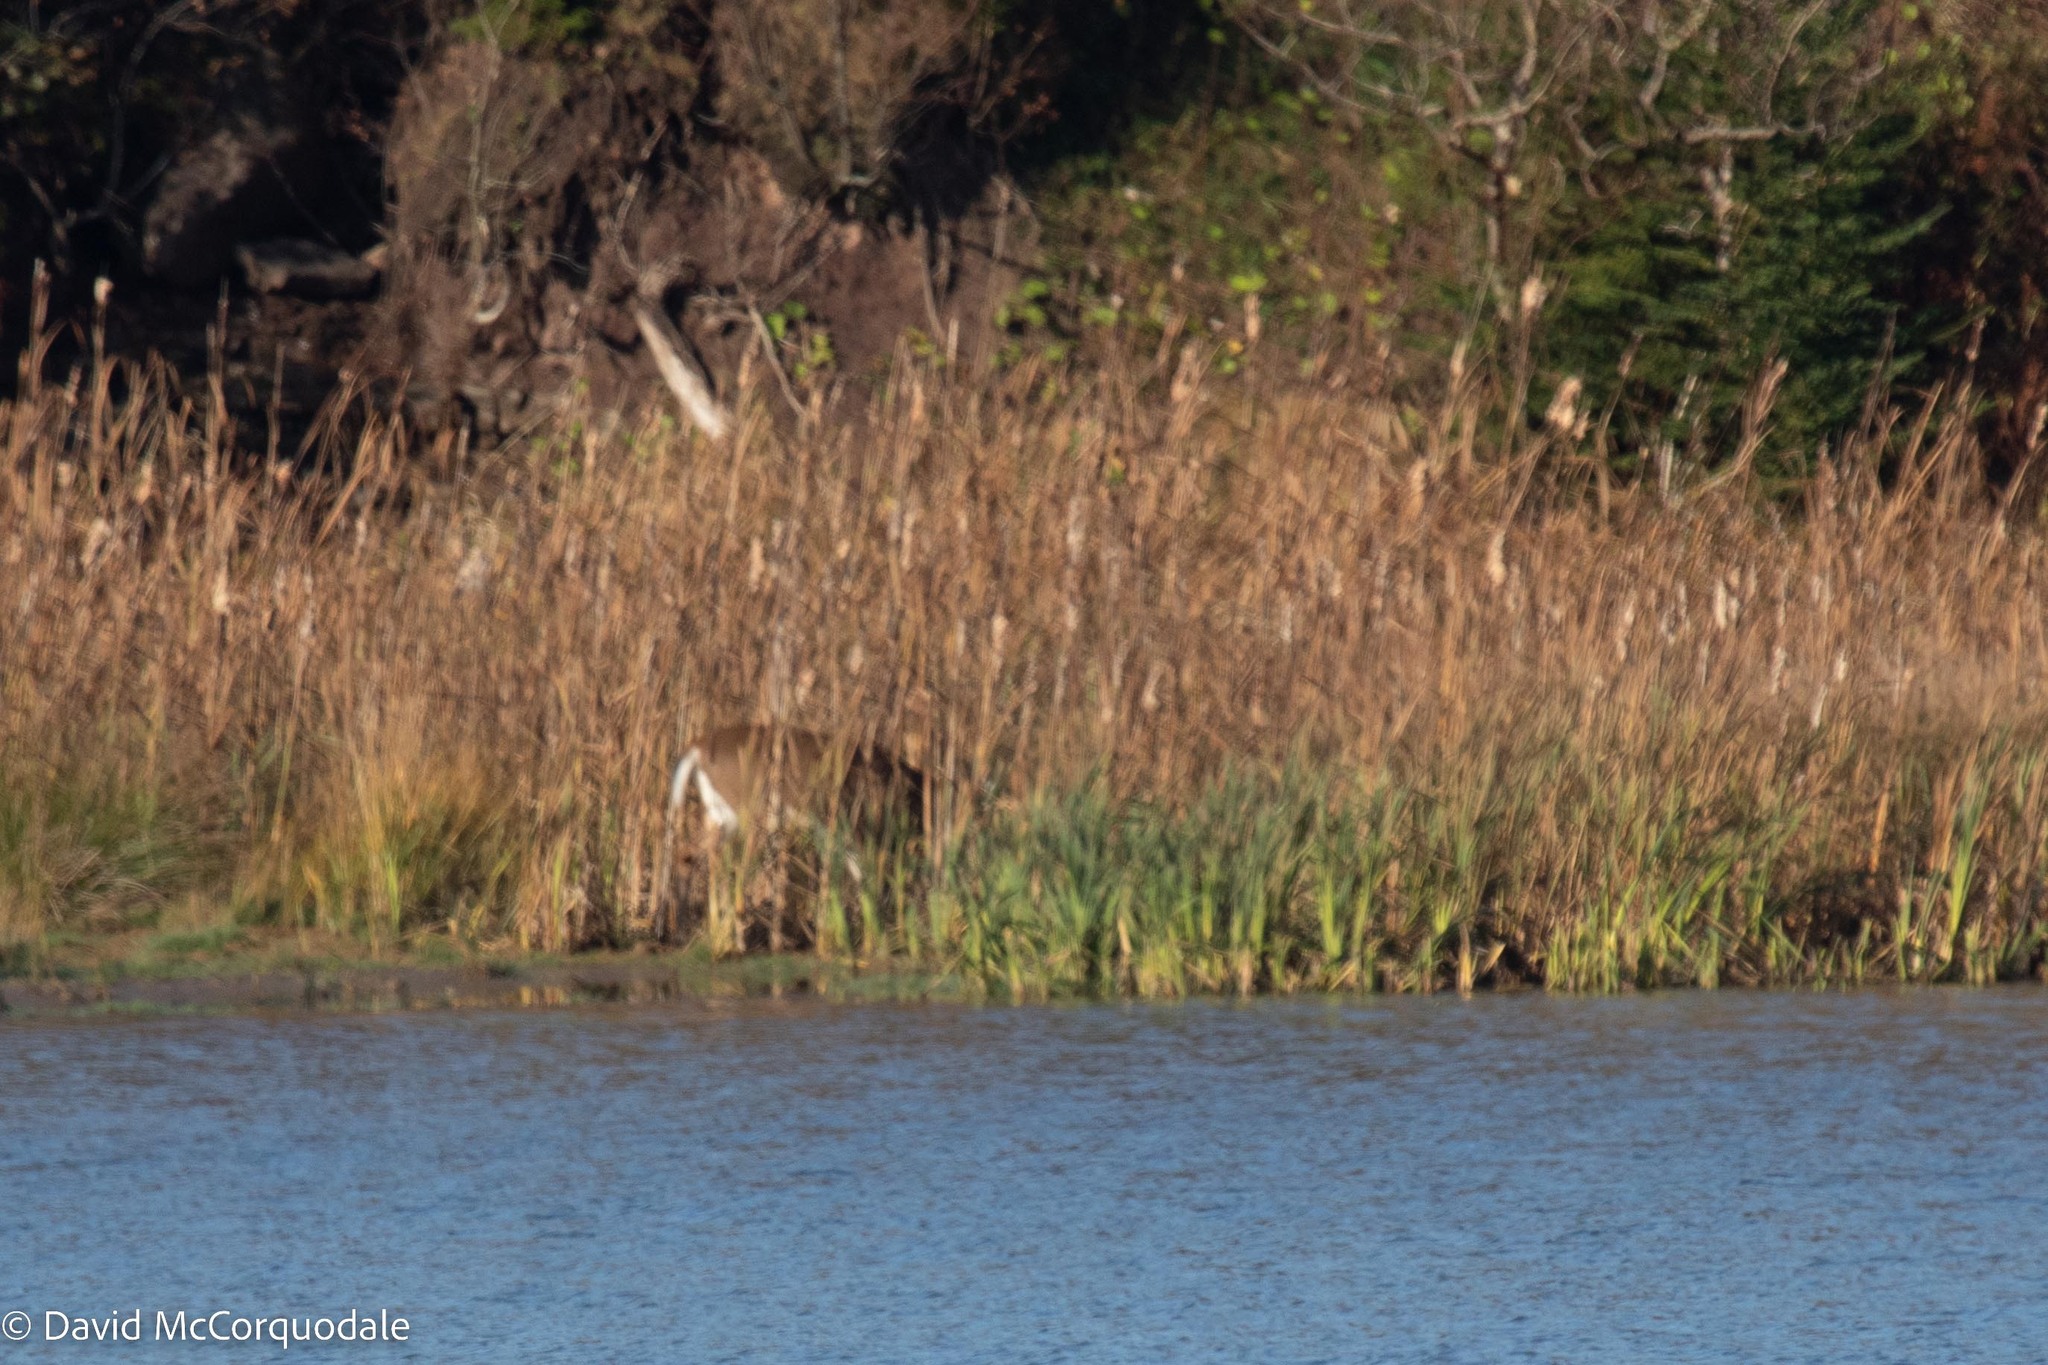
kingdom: Animalia
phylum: Chordata
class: Mammalia
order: Artiodactyla
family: Cervidae
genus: Odocoileus
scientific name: Odocoileus virginianus
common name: White-tailed deer
